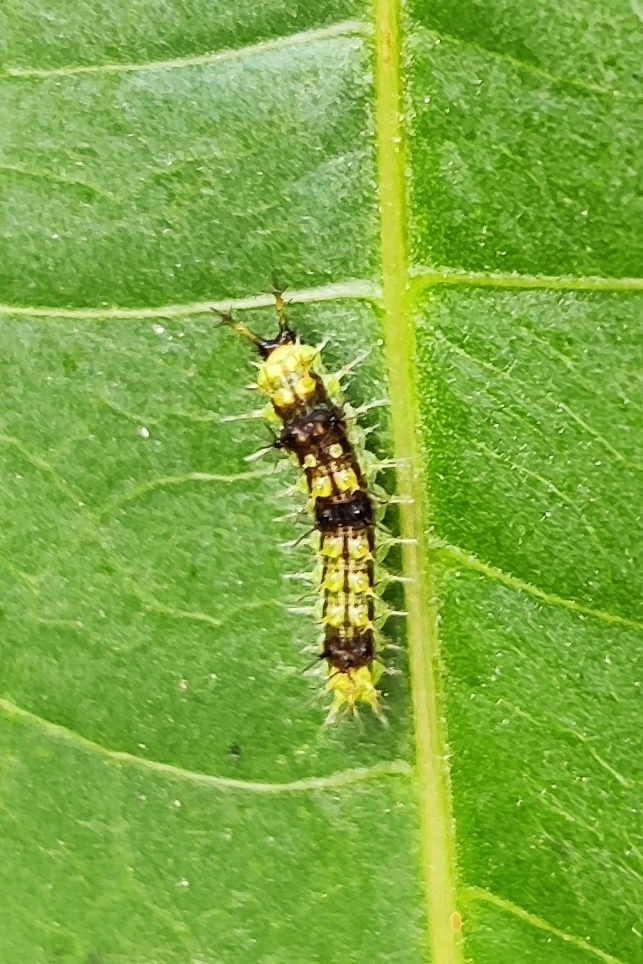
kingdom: Animalia
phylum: Arthropoda
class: Insecta
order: Lepidoptera
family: Nymphalidae
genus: Ariadne
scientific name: Ariadne merione
